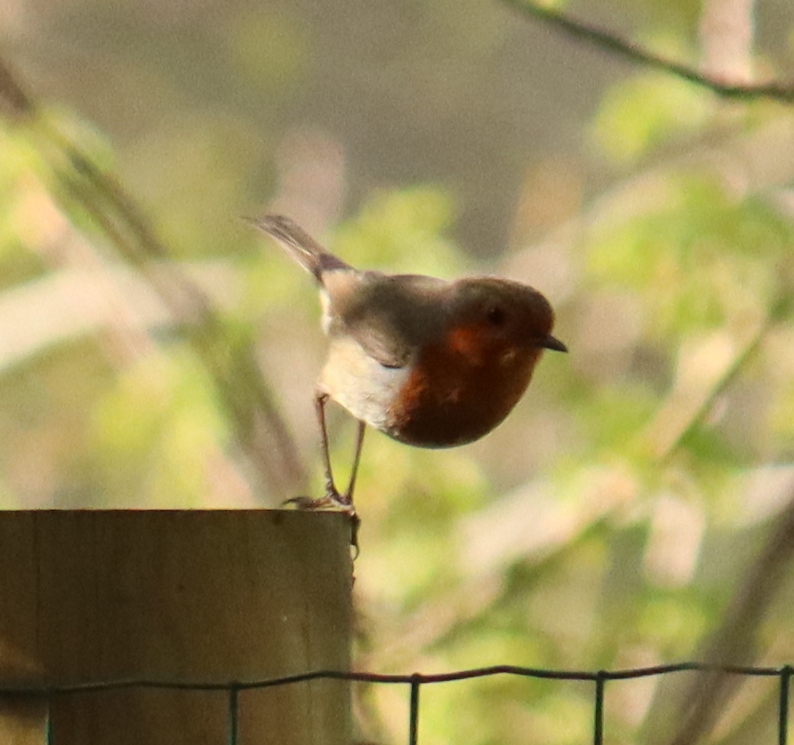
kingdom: Animalia
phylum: Chordata
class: Aves
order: Passeriformes
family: Muscicapidae
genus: Erithacus
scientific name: Erithacus rubecula
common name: European robin
